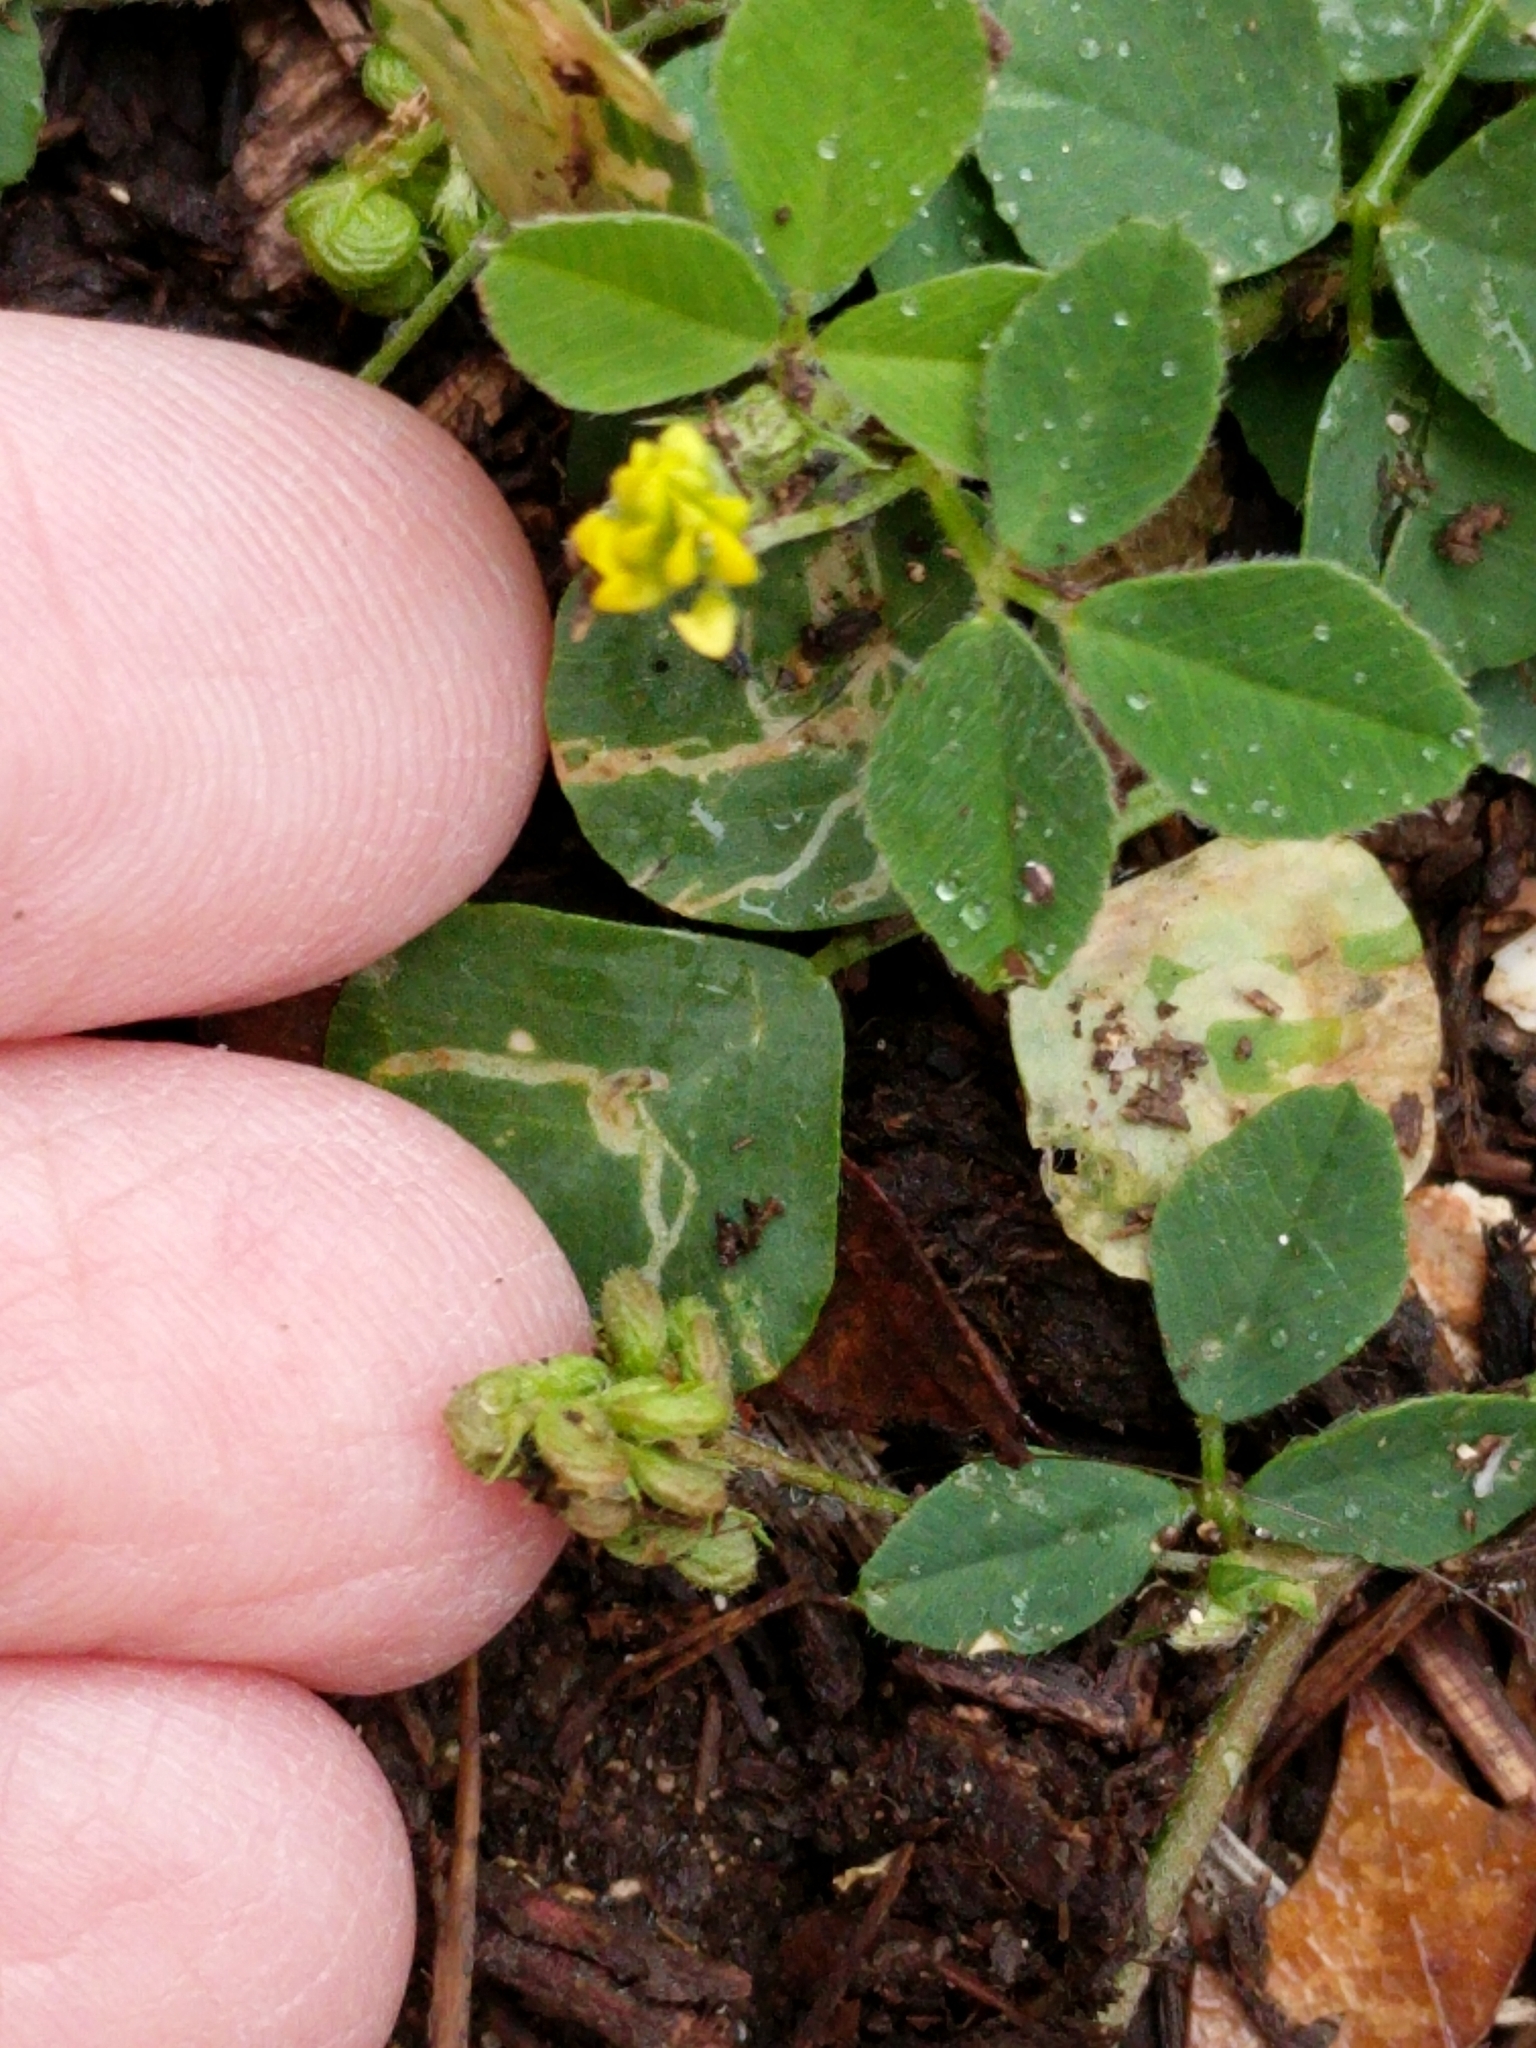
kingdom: Plantae
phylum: Tracheophyta
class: Magnoliopsida
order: Fabales
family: Fabaceae
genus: Medicago
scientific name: Medicago lupulina
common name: Black medick
